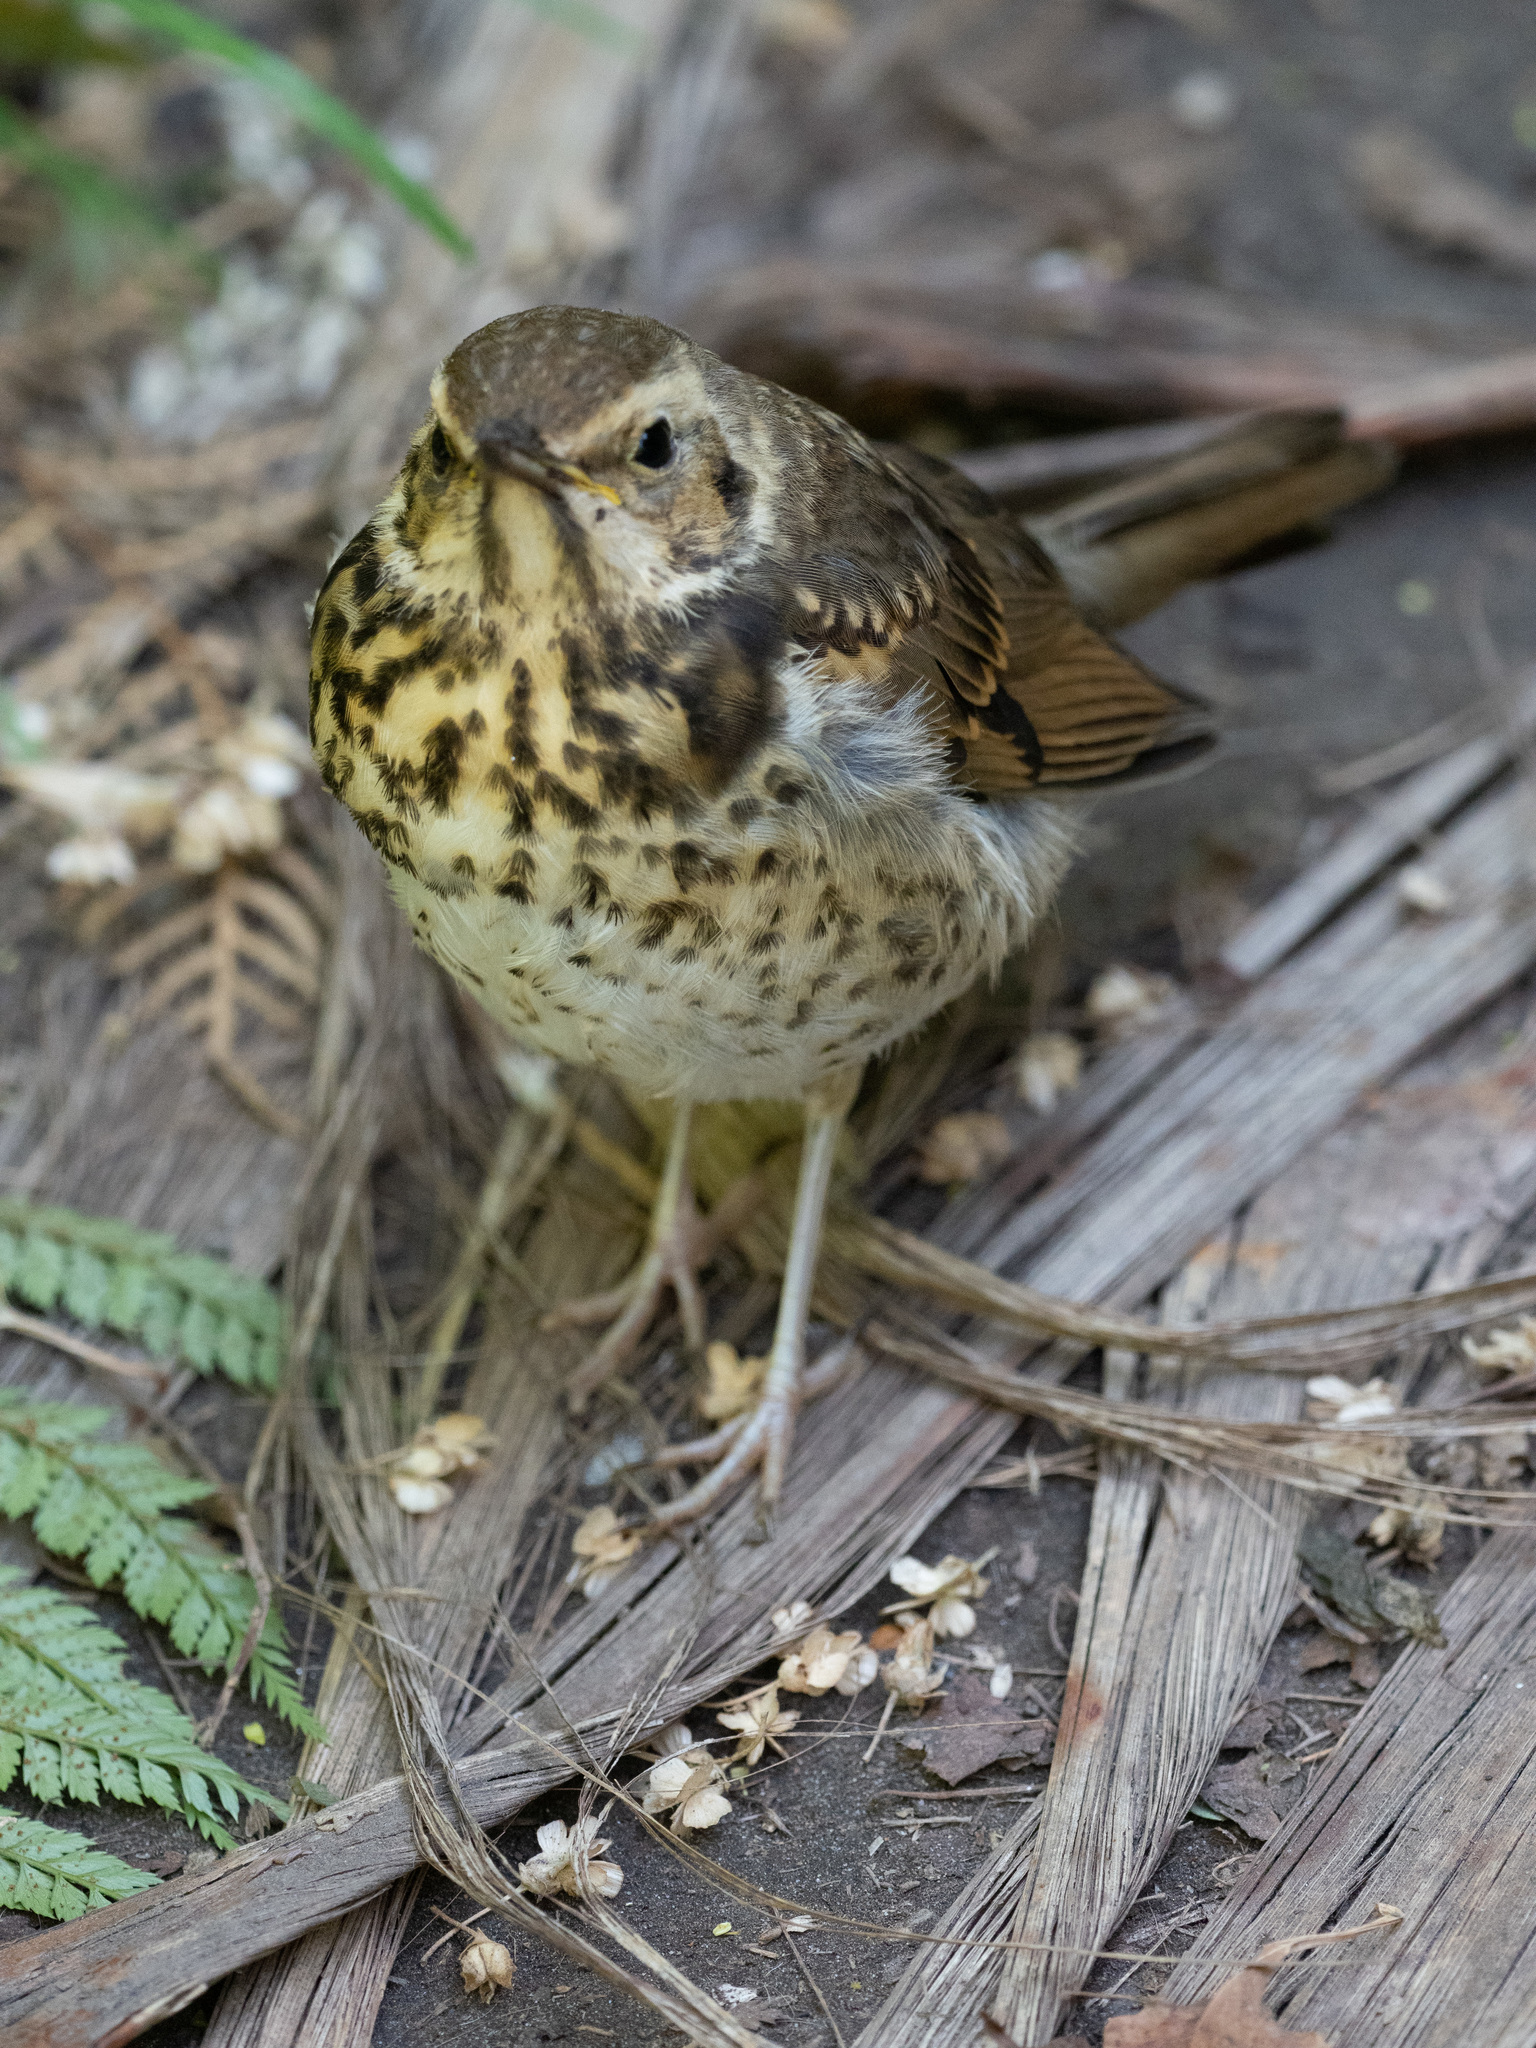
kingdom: Animalia
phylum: Chordata
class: Aves
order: Passeriformes
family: Turdidae
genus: Turdus
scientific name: Turdus philomelos
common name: Song thrush
